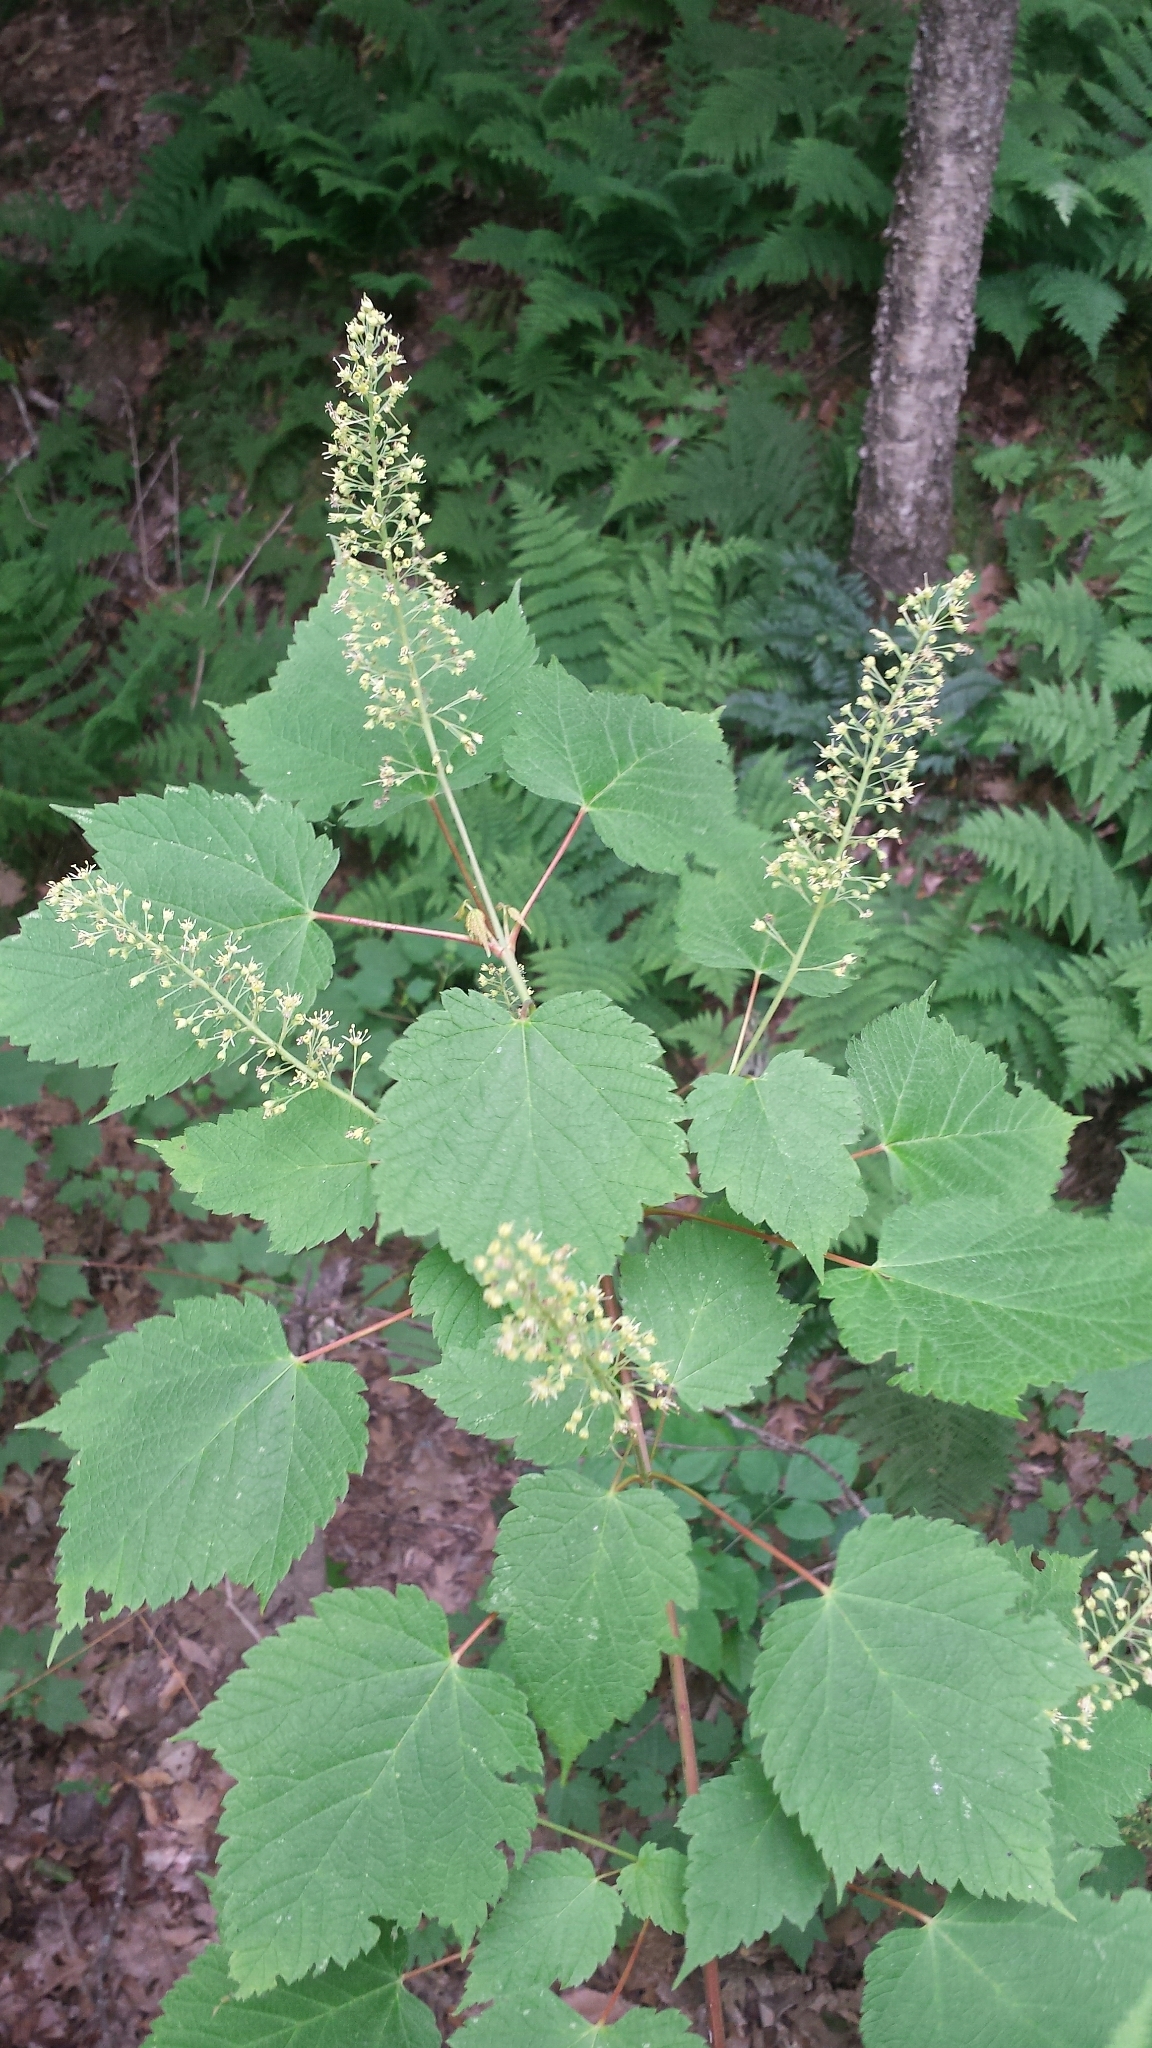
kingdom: Plantae
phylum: Tracheophyta
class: Magnoliopsida
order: Sapindales
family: Sapindaceae
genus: Acer
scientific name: Acer spicatum
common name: Mountain maple
